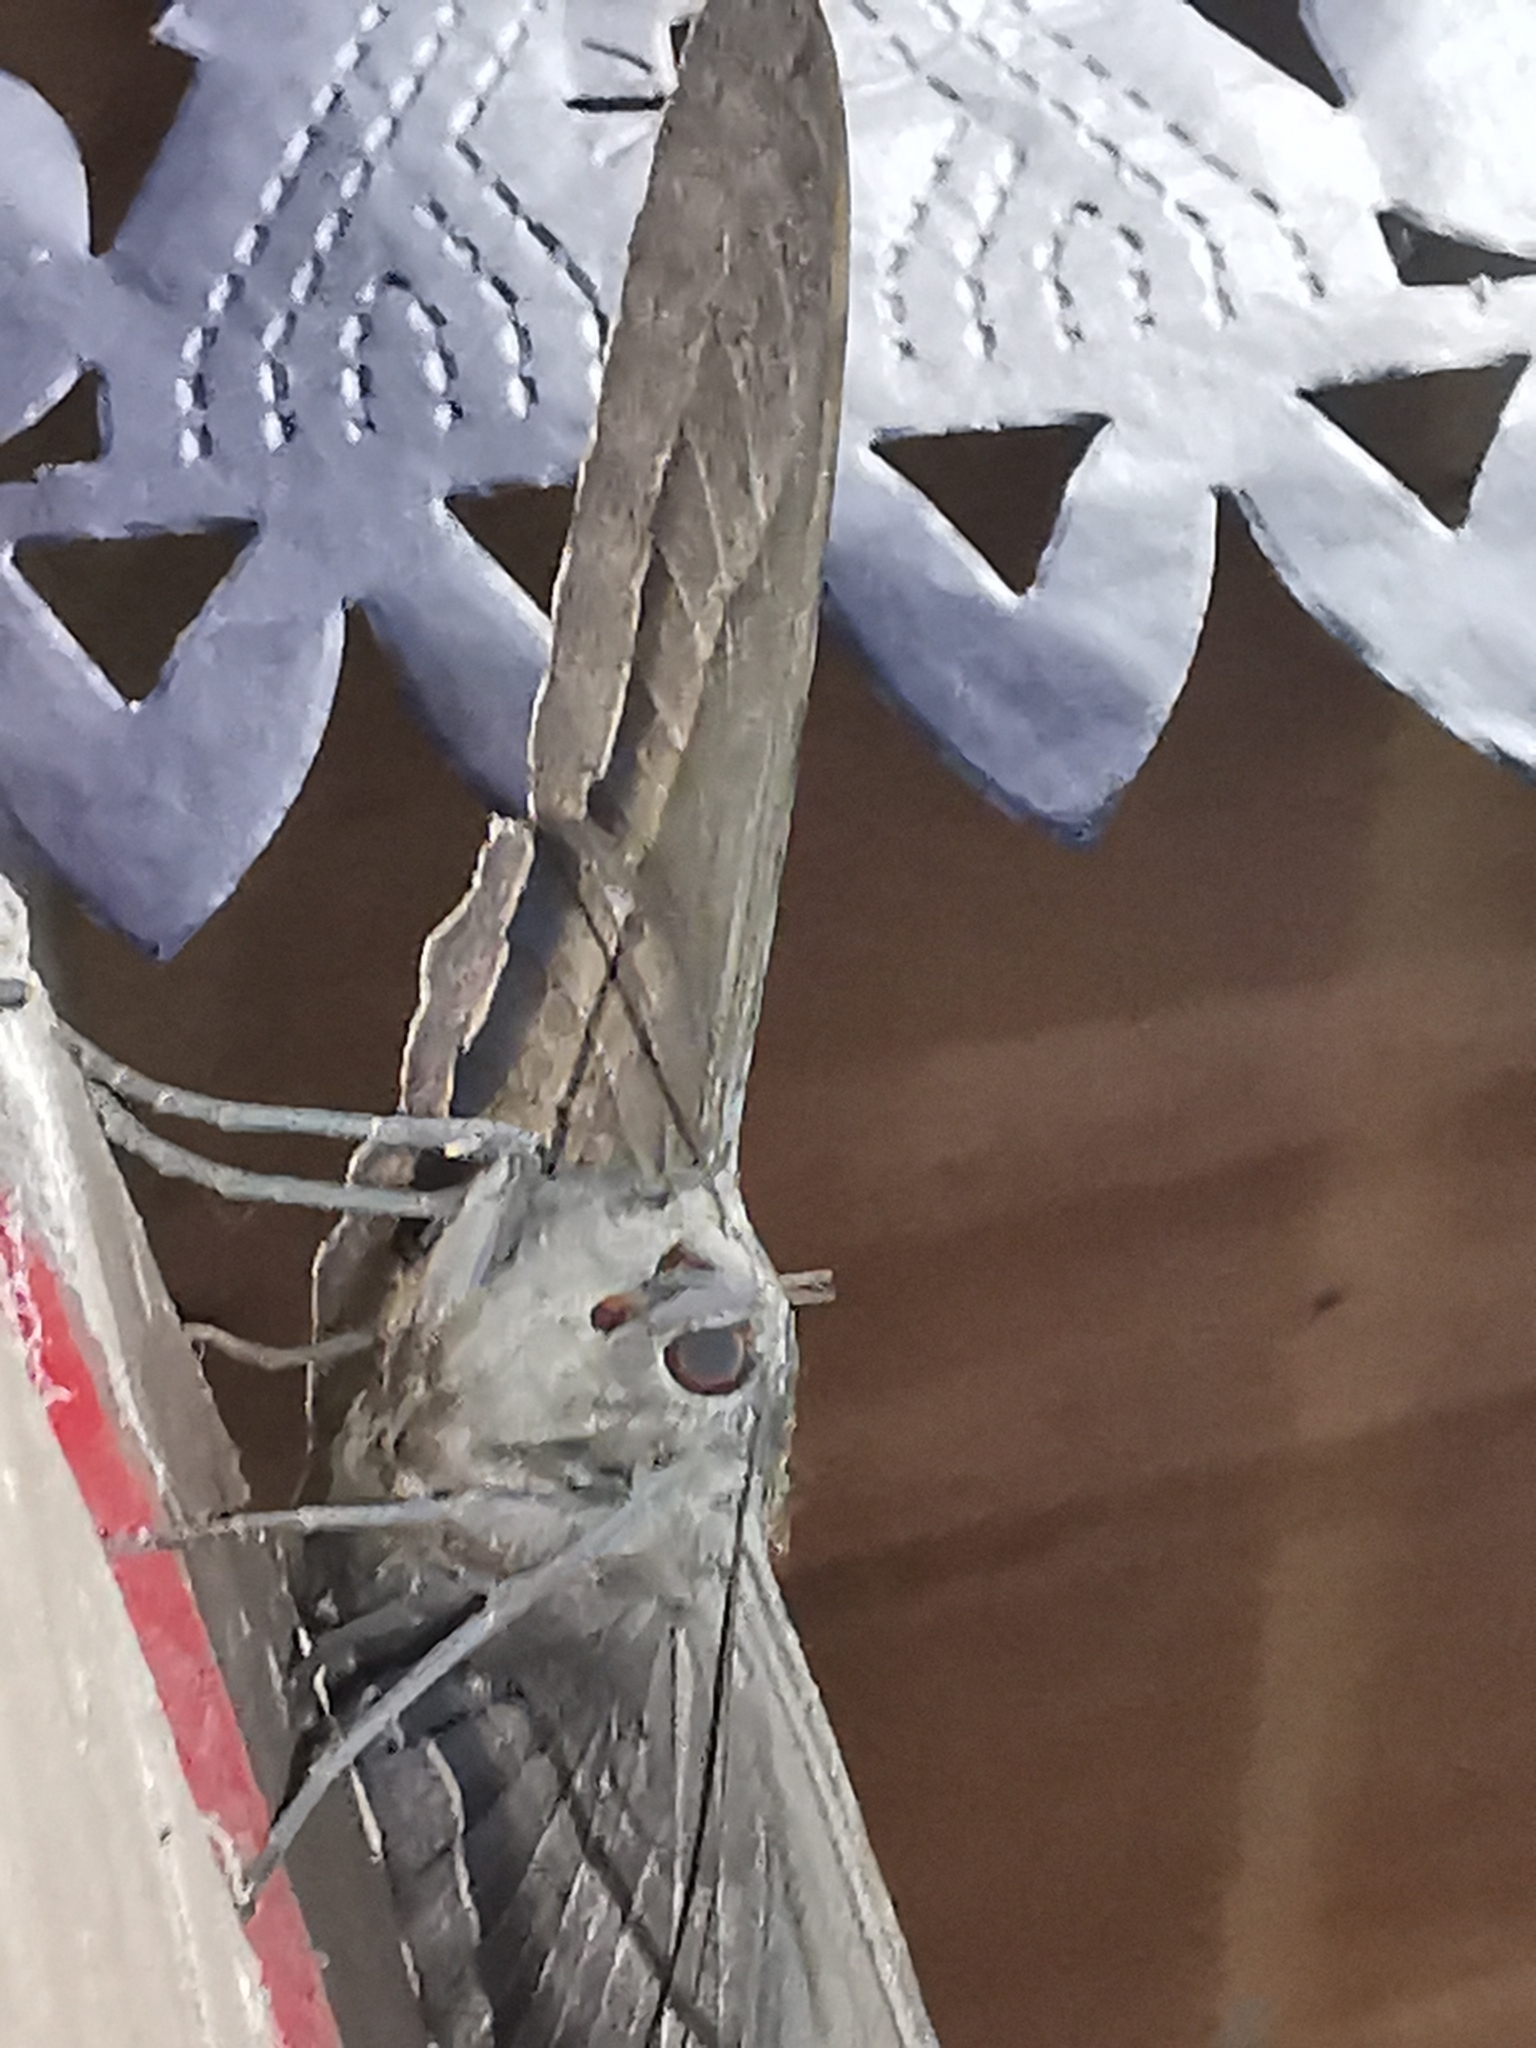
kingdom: Animalia
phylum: Arthropoda
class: Insecta
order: Lepidoptera
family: Erebidae
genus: Ascalapha
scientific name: Ascalapha odorata
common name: Black witch
